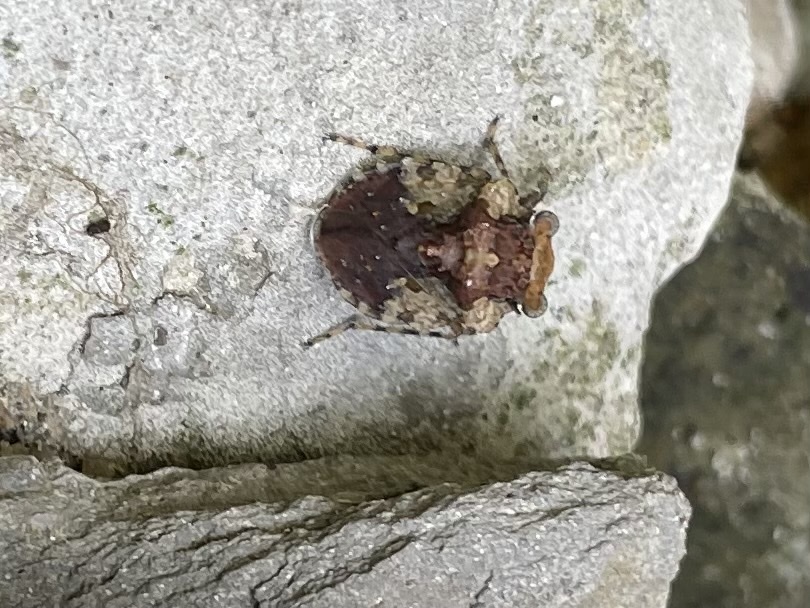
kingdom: Animalia
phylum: Arthropoda
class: Insecta
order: Hemiptera
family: Gelastocoridae
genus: Gelastocoris
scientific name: Gelastocoris oculatus
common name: Toad bug
